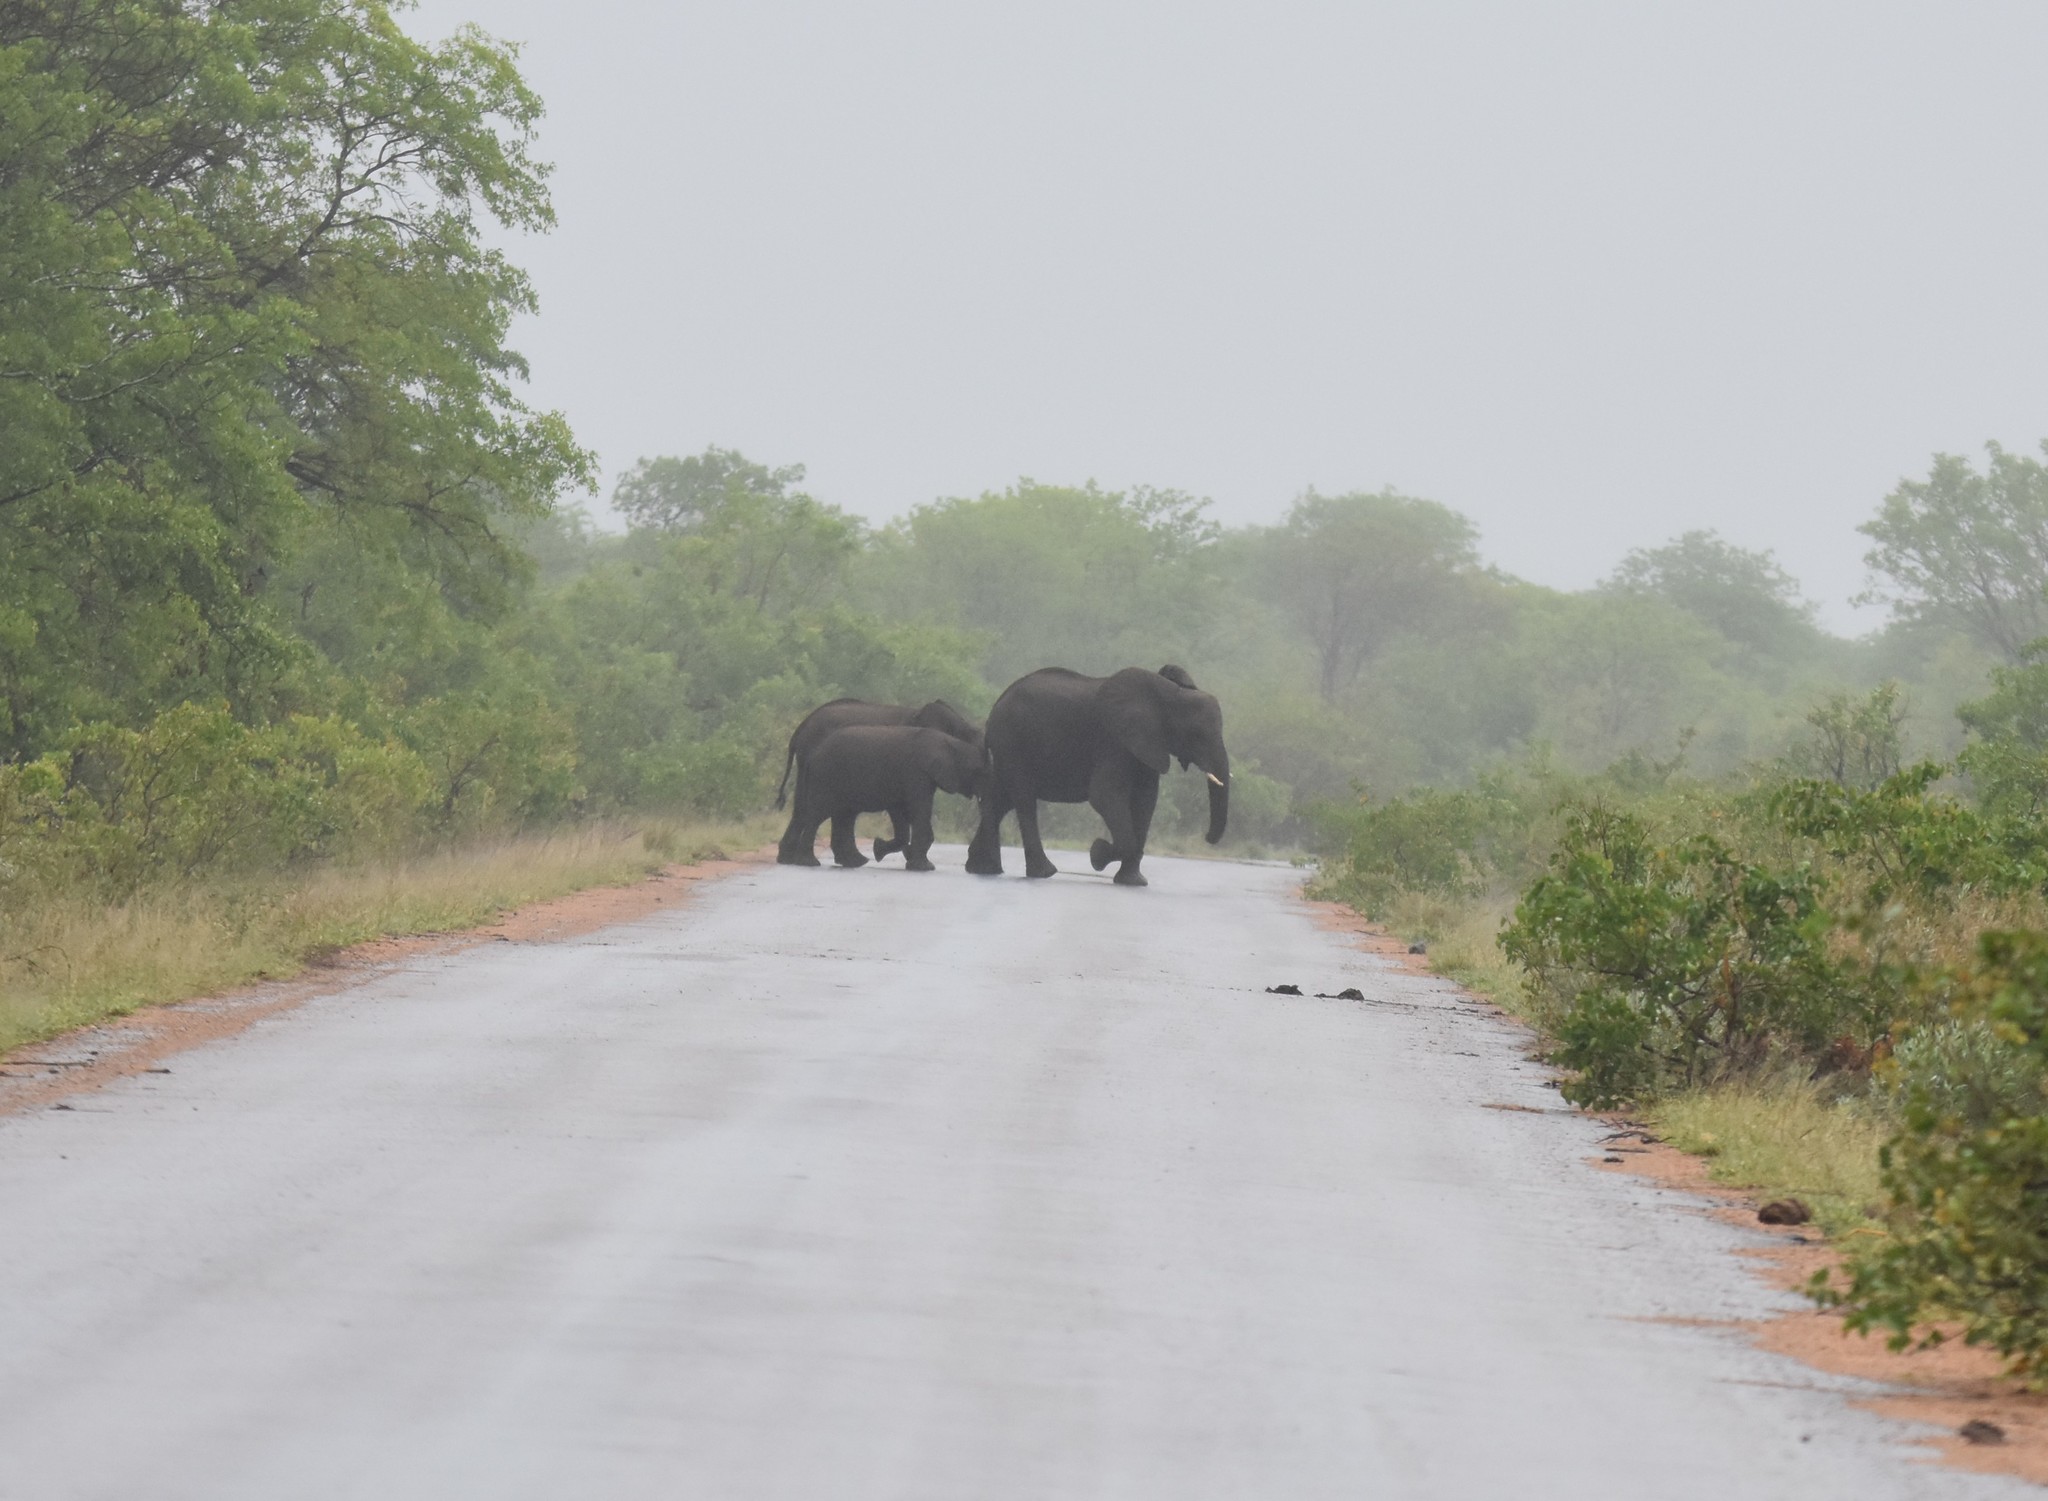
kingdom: Animalia
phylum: Chordata
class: Mammalia
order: Proboscidea
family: Elephantidae
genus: Loxodonta
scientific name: Loxodonta africana
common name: African elephant
